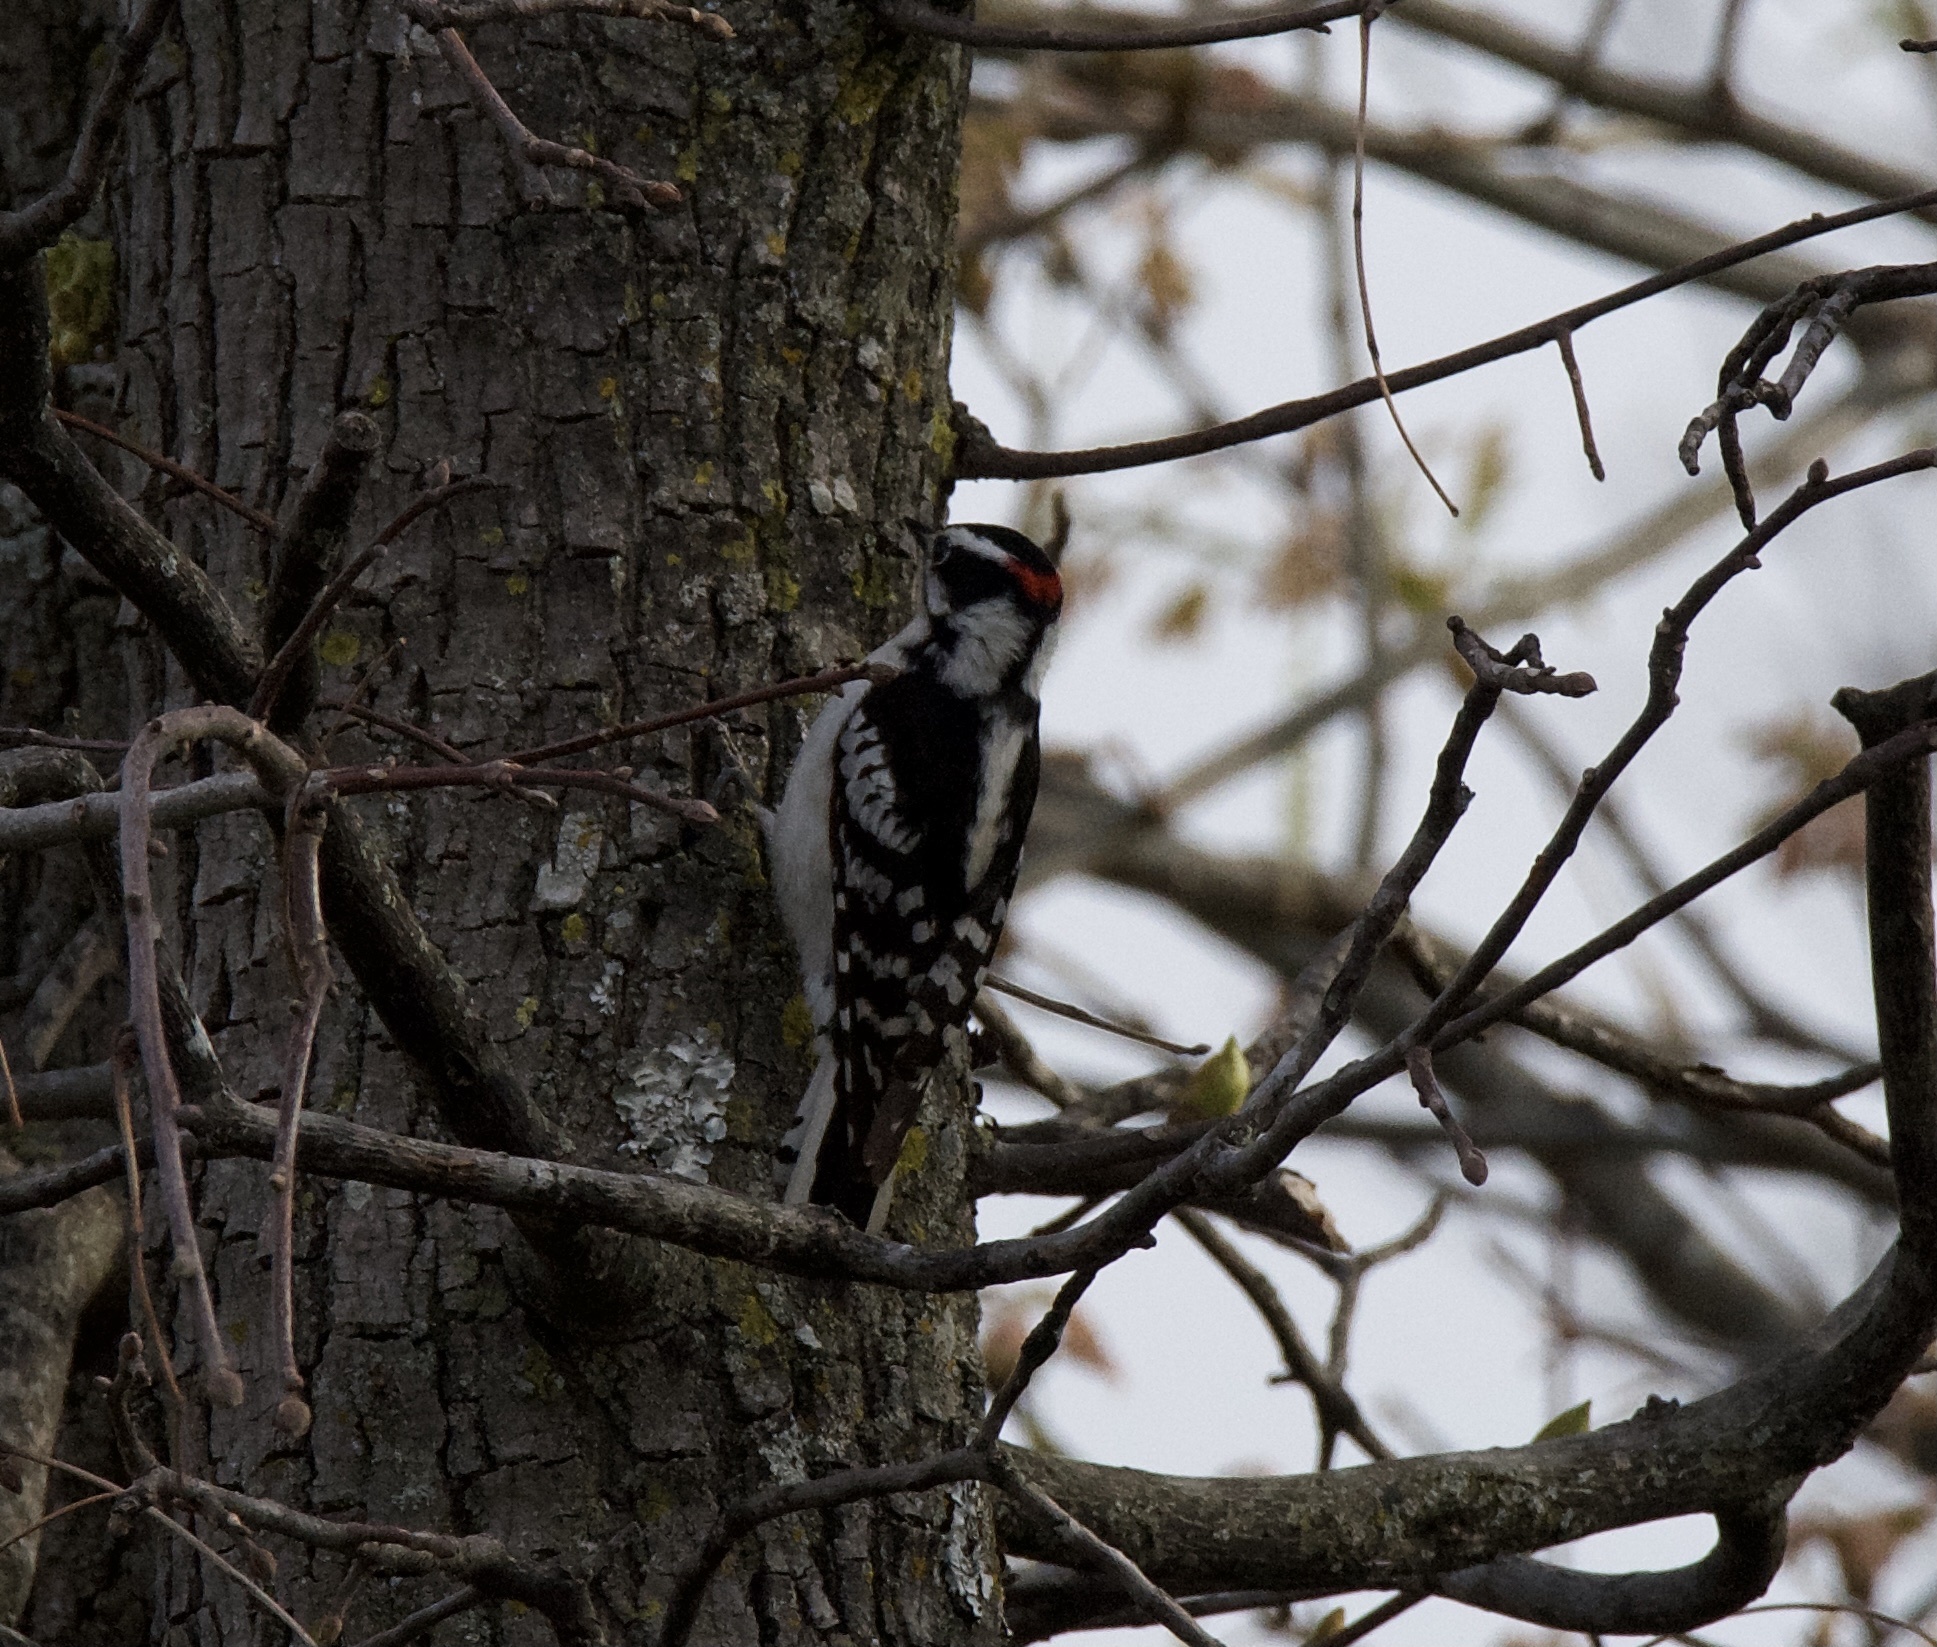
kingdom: Animalia
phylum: Chordata
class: Aves
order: Piciformes
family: Picidae
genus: Dryobates
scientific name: Dryobates pubescens
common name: Downy woodpecker
